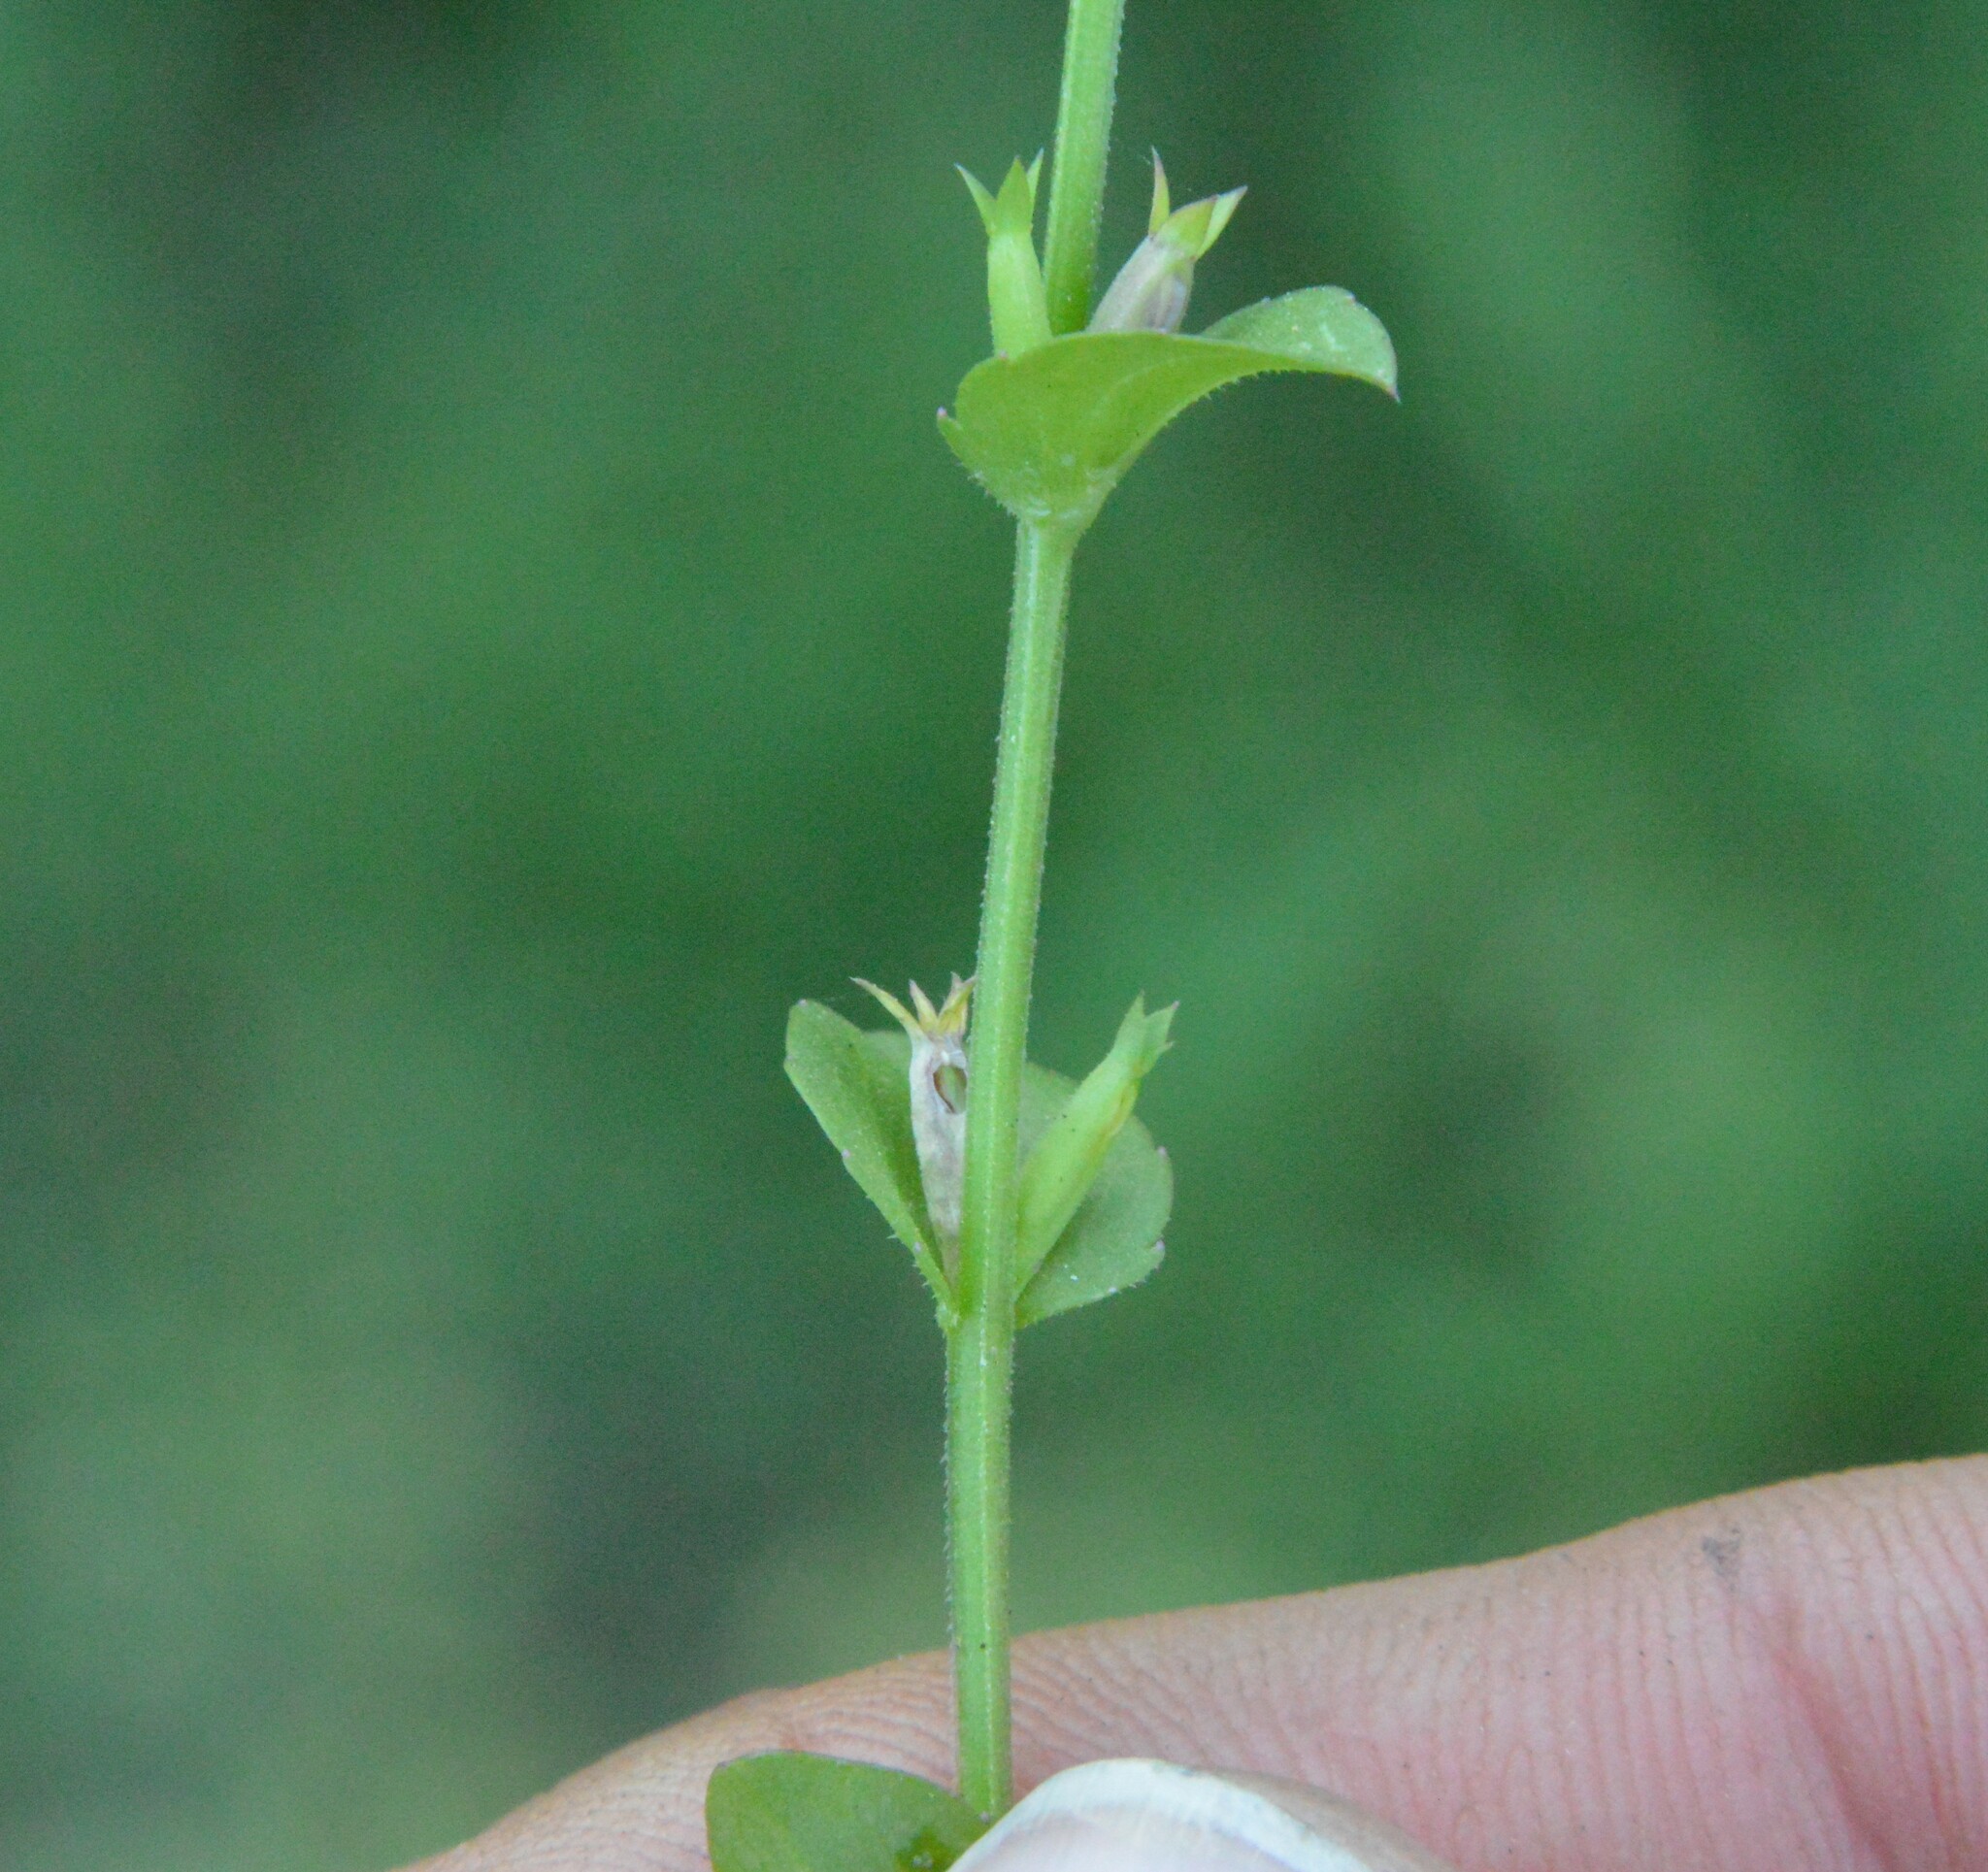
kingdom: Plantae
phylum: Tracheophyta
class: Magnoliopsida
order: Asterales
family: Campanulaceae
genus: Triodanis
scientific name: Triodanis biflora
